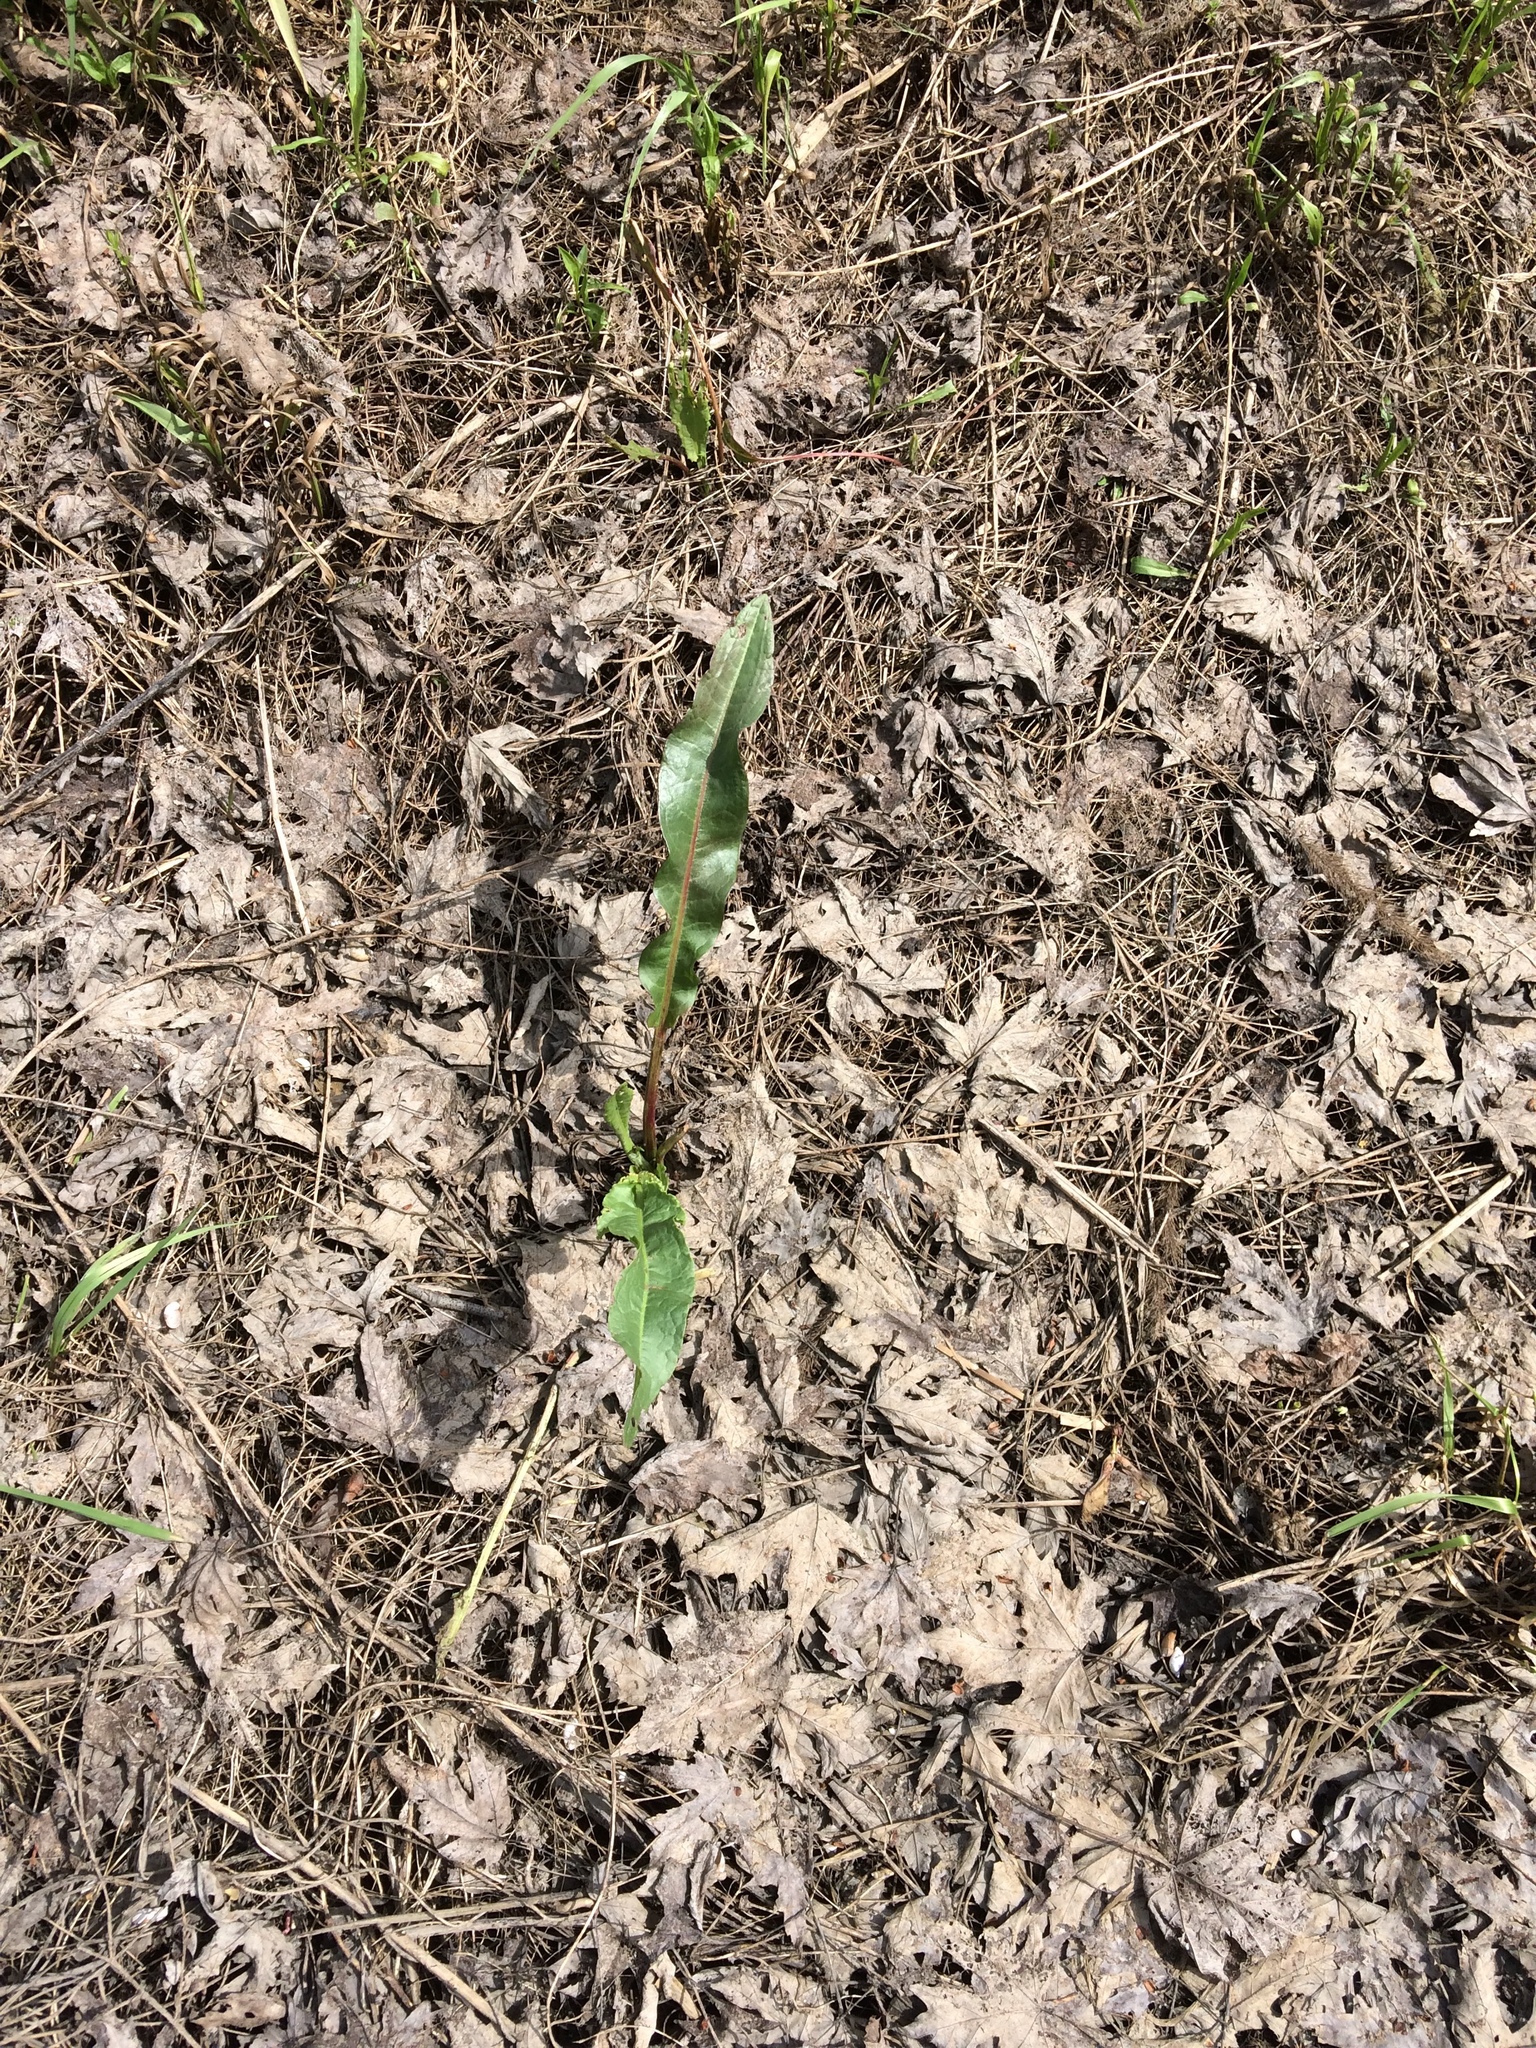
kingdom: Plantae
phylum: Tracheophyta
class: Magnoliopsida
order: Caryophyllales
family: Polygonaceae
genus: Rumex
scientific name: Rumex crispus
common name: Curled dock
